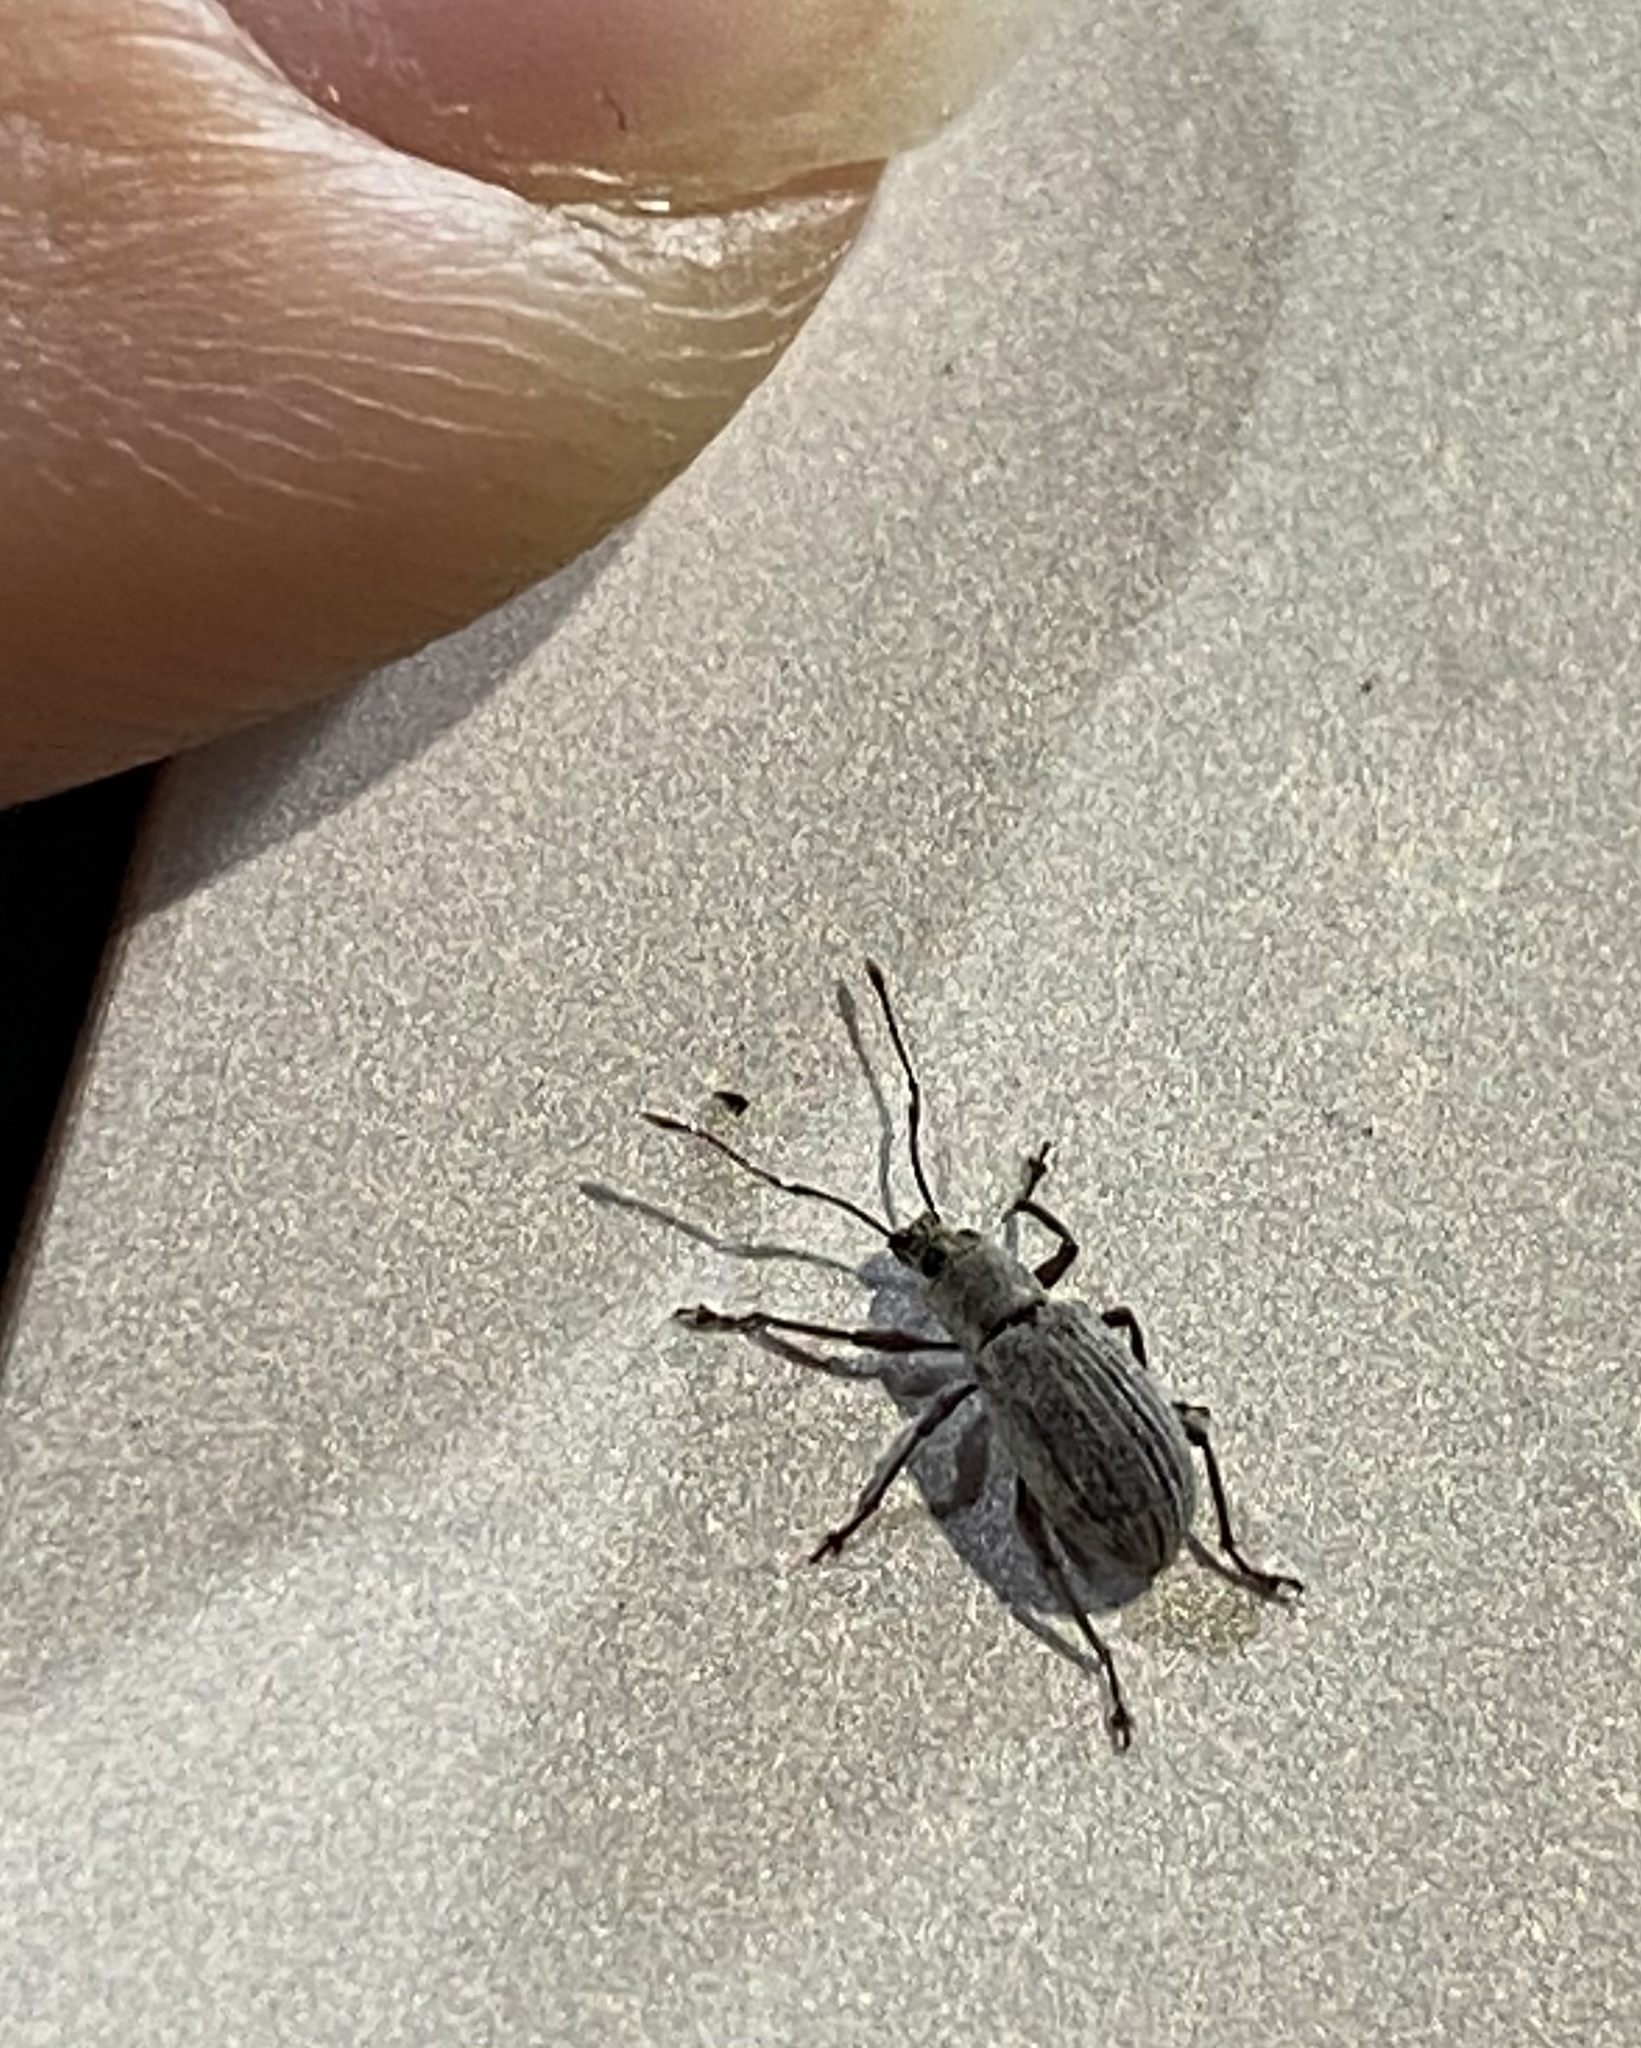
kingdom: Animalia
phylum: Arthropoda
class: Insecta
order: Coleoptera
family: Curculionidae
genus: Cyrtepistomus
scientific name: Cyrtepistomus castaneus
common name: Weevil
